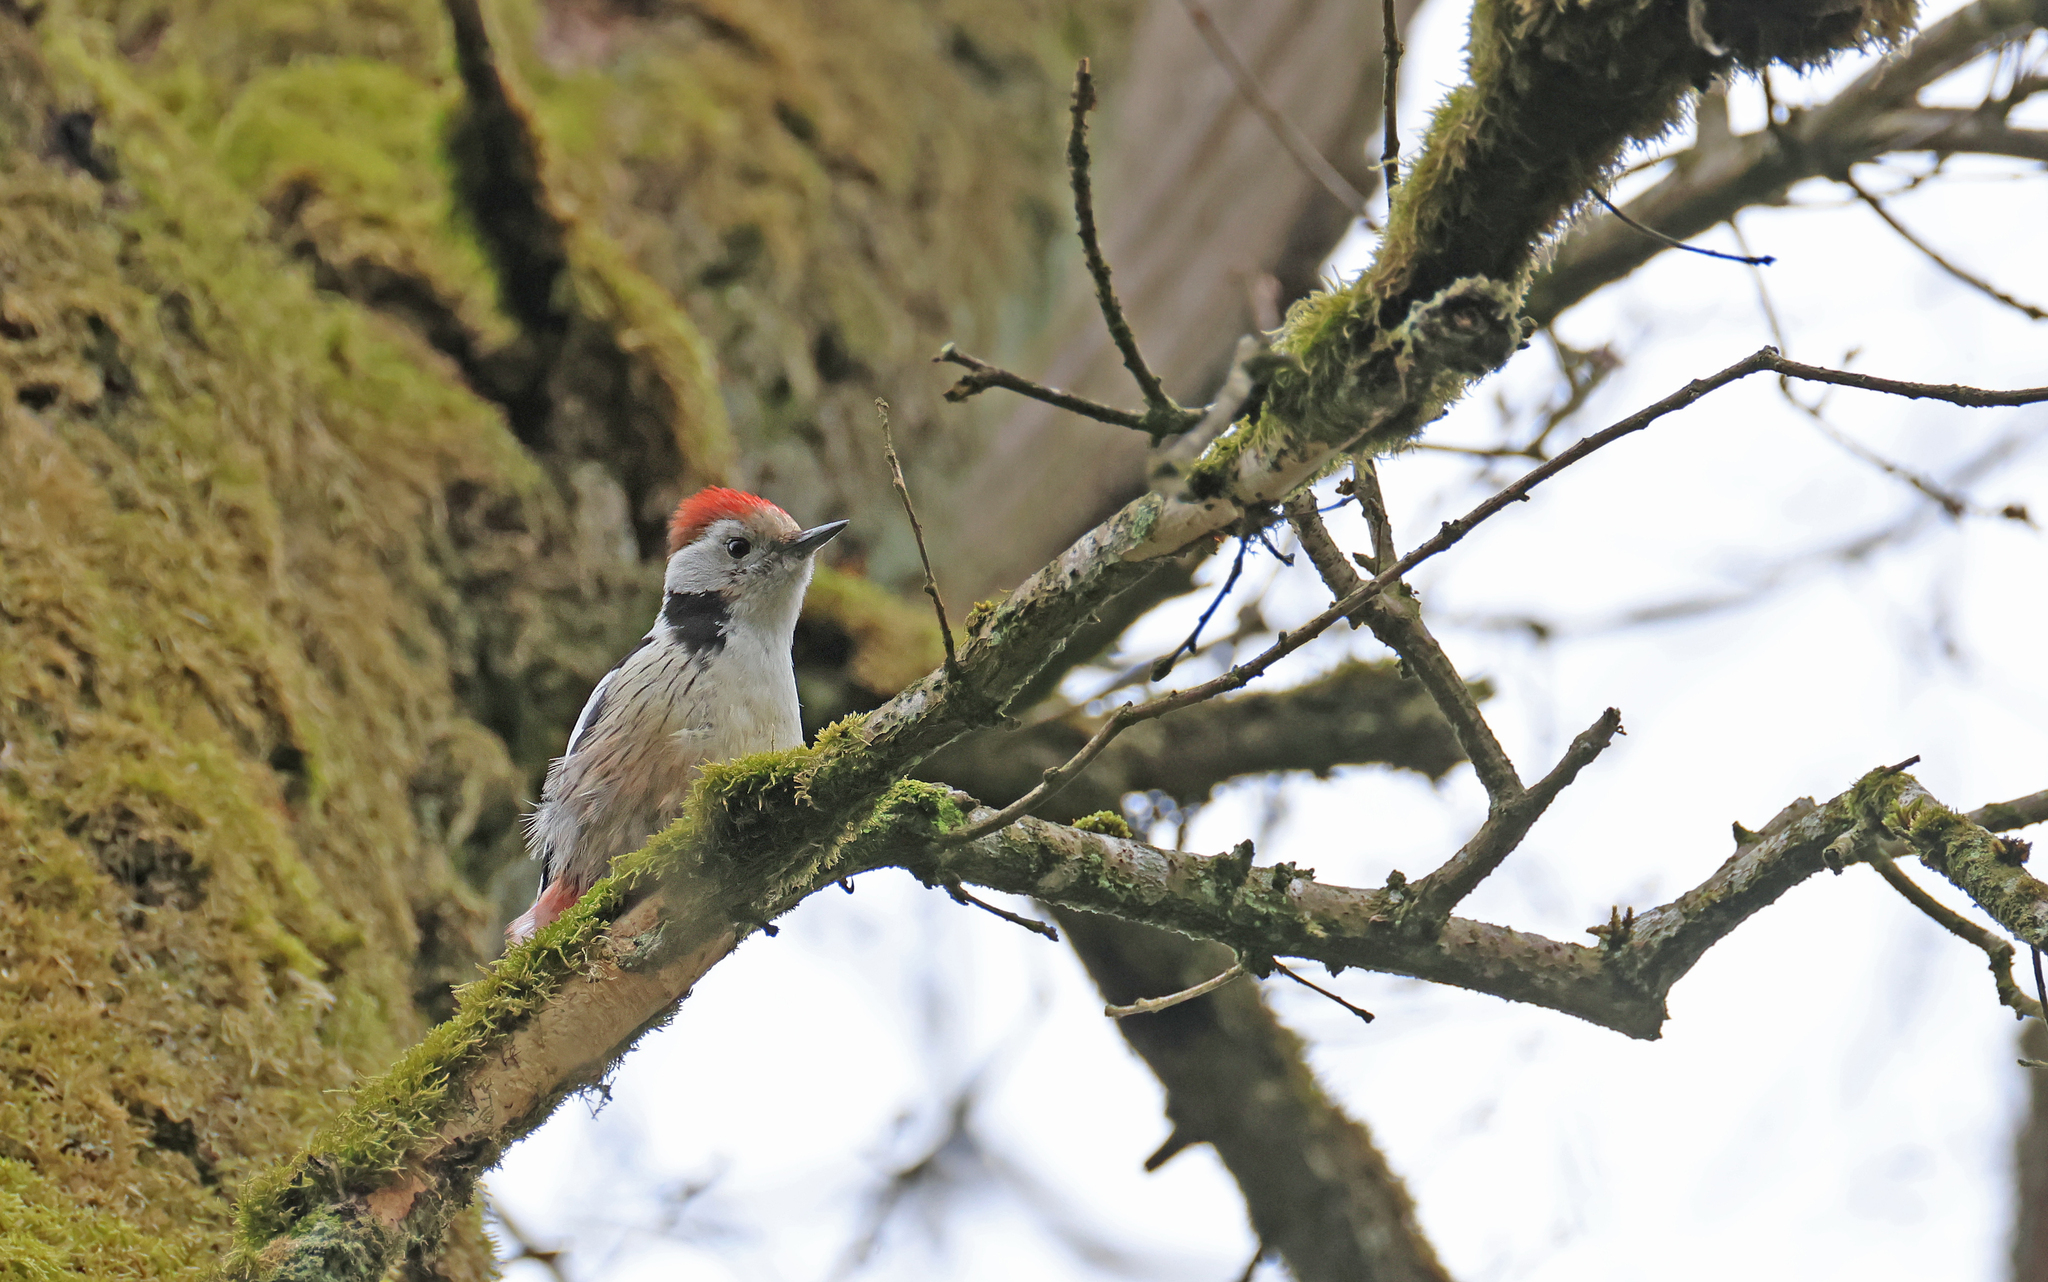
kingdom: Animalia
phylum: Chordata
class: Aves
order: Piciformes
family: Picidae
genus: Dendrocoptes
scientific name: Dendrocoptes medius
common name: Middle spotted woodpecker
